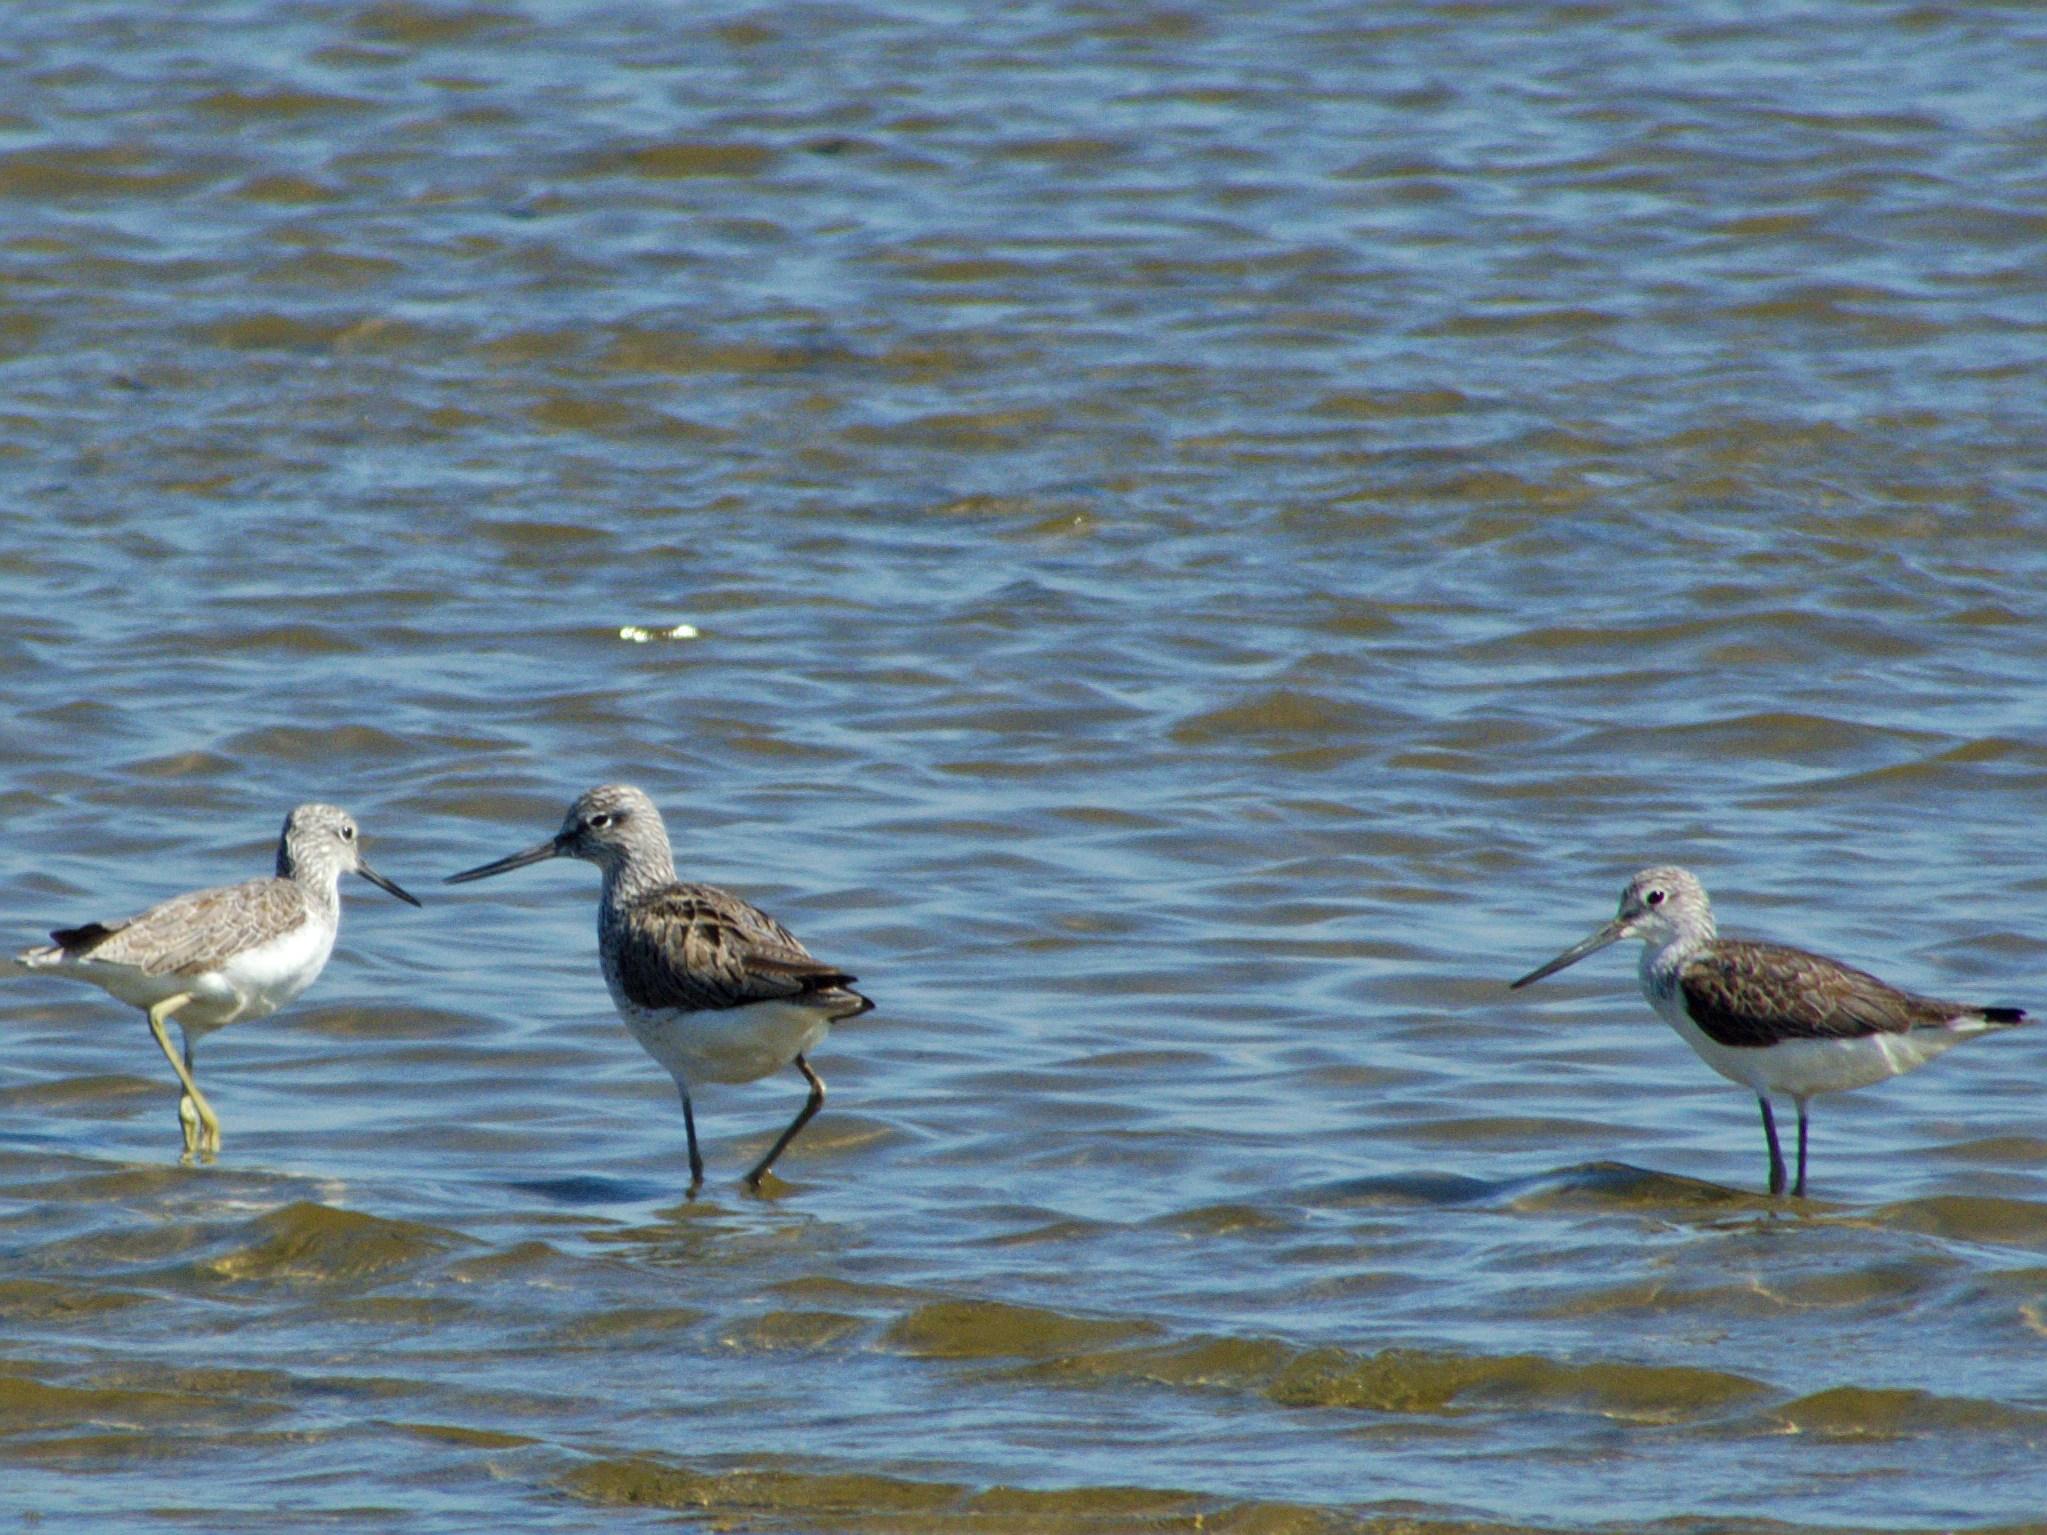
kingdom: Animalia
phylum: Chordata
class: Aves
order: Charadriiformes
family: Scolopacidae
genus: Tringa
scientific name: Tringa nebularia
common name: Common greenshank
